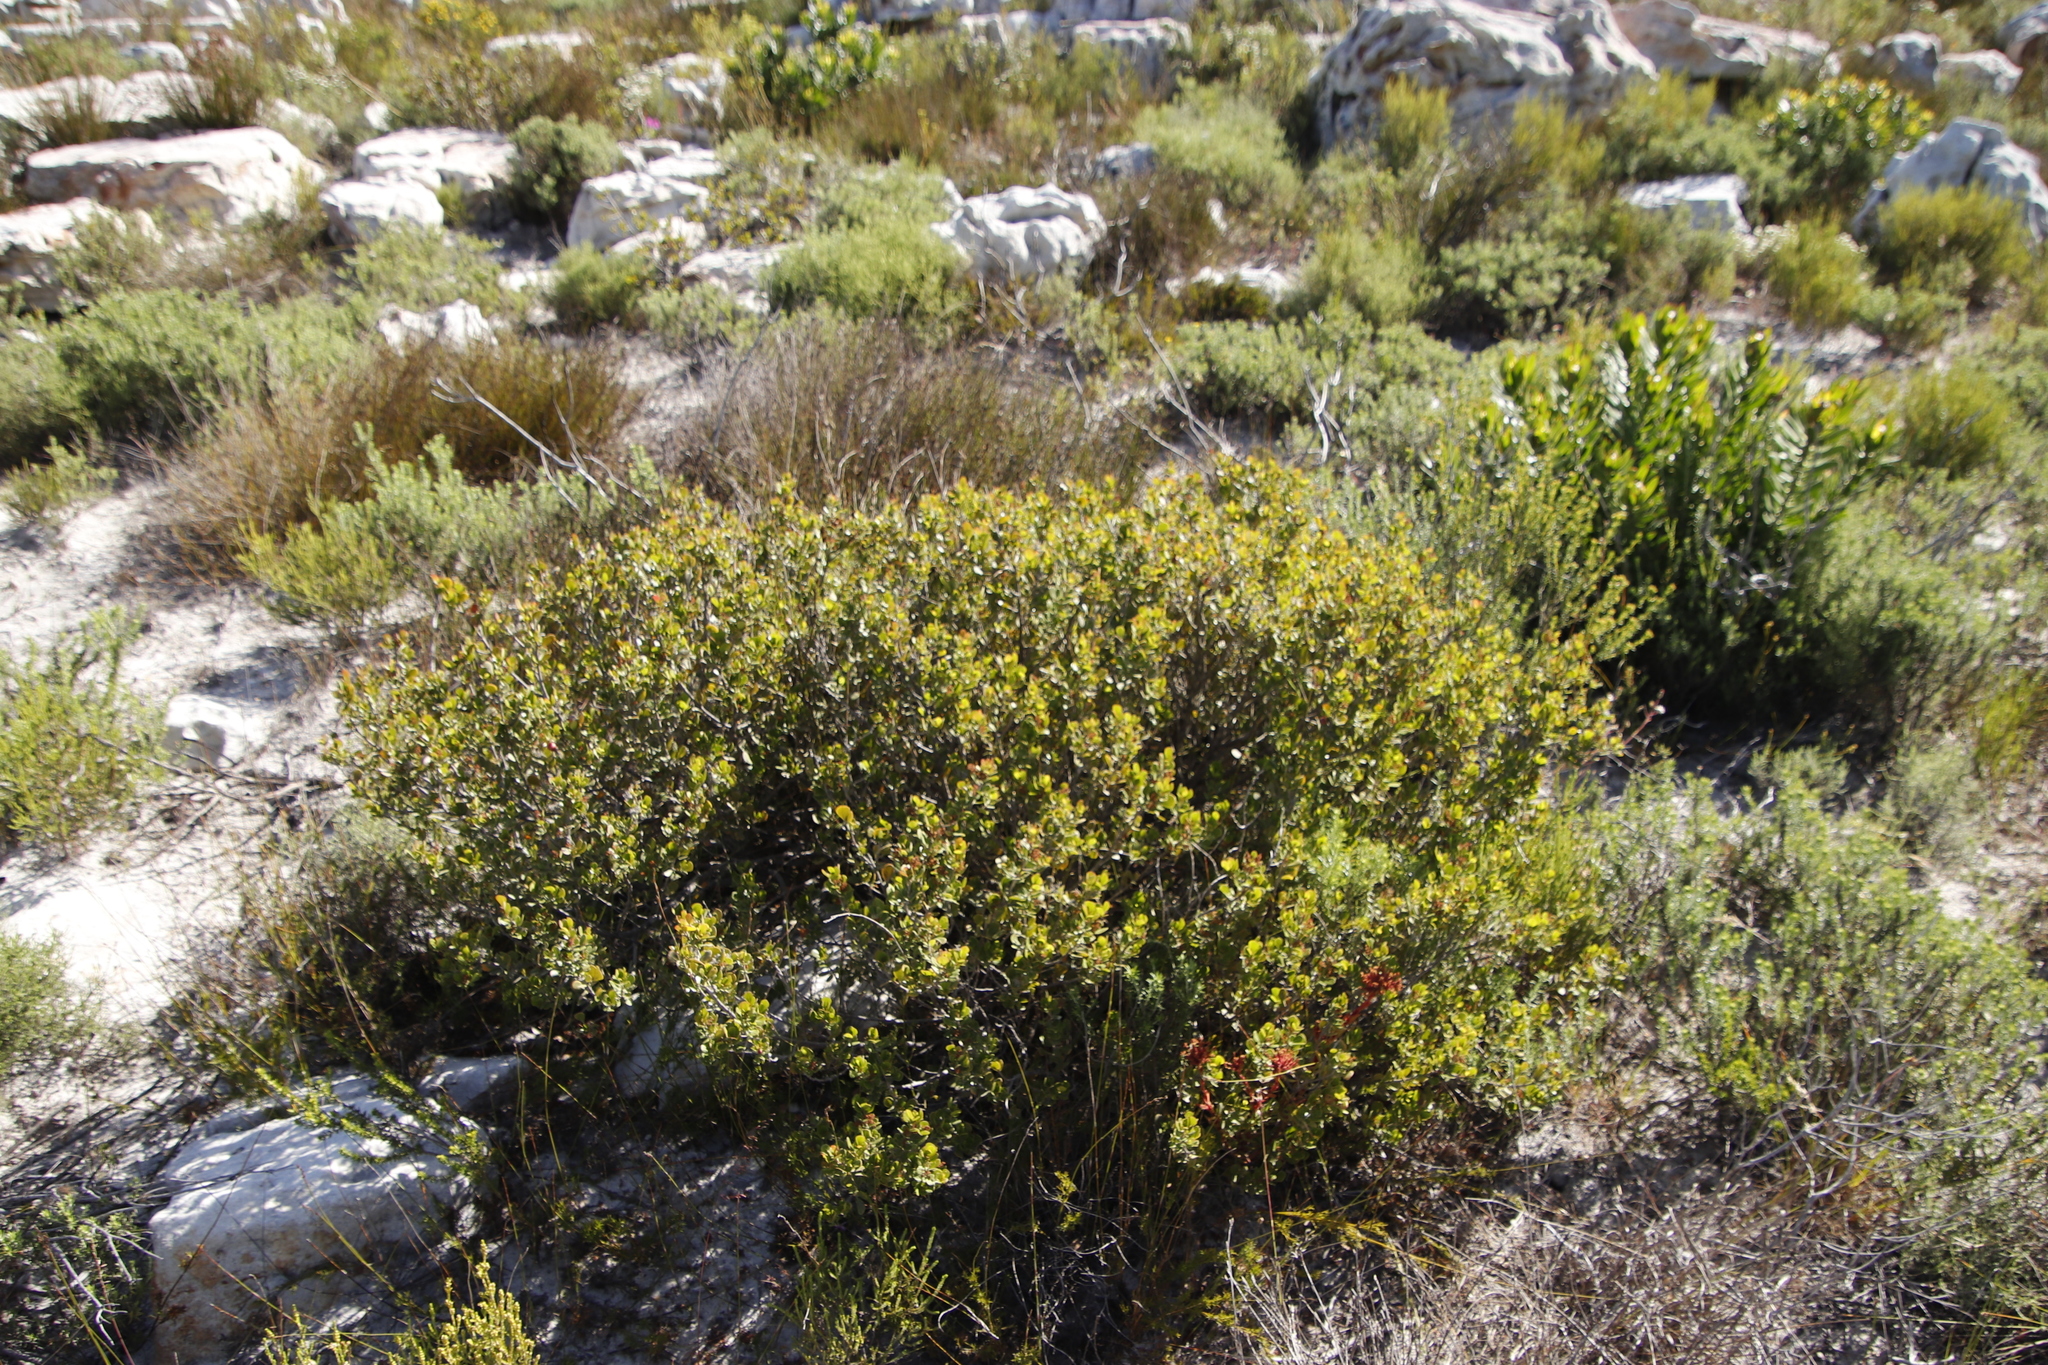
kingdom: Plantae
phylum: Tracheophyta
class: Magnoliopsida
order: Sapindales
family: Anacardiaceae
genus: Searsia
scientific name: Searsia lucida
